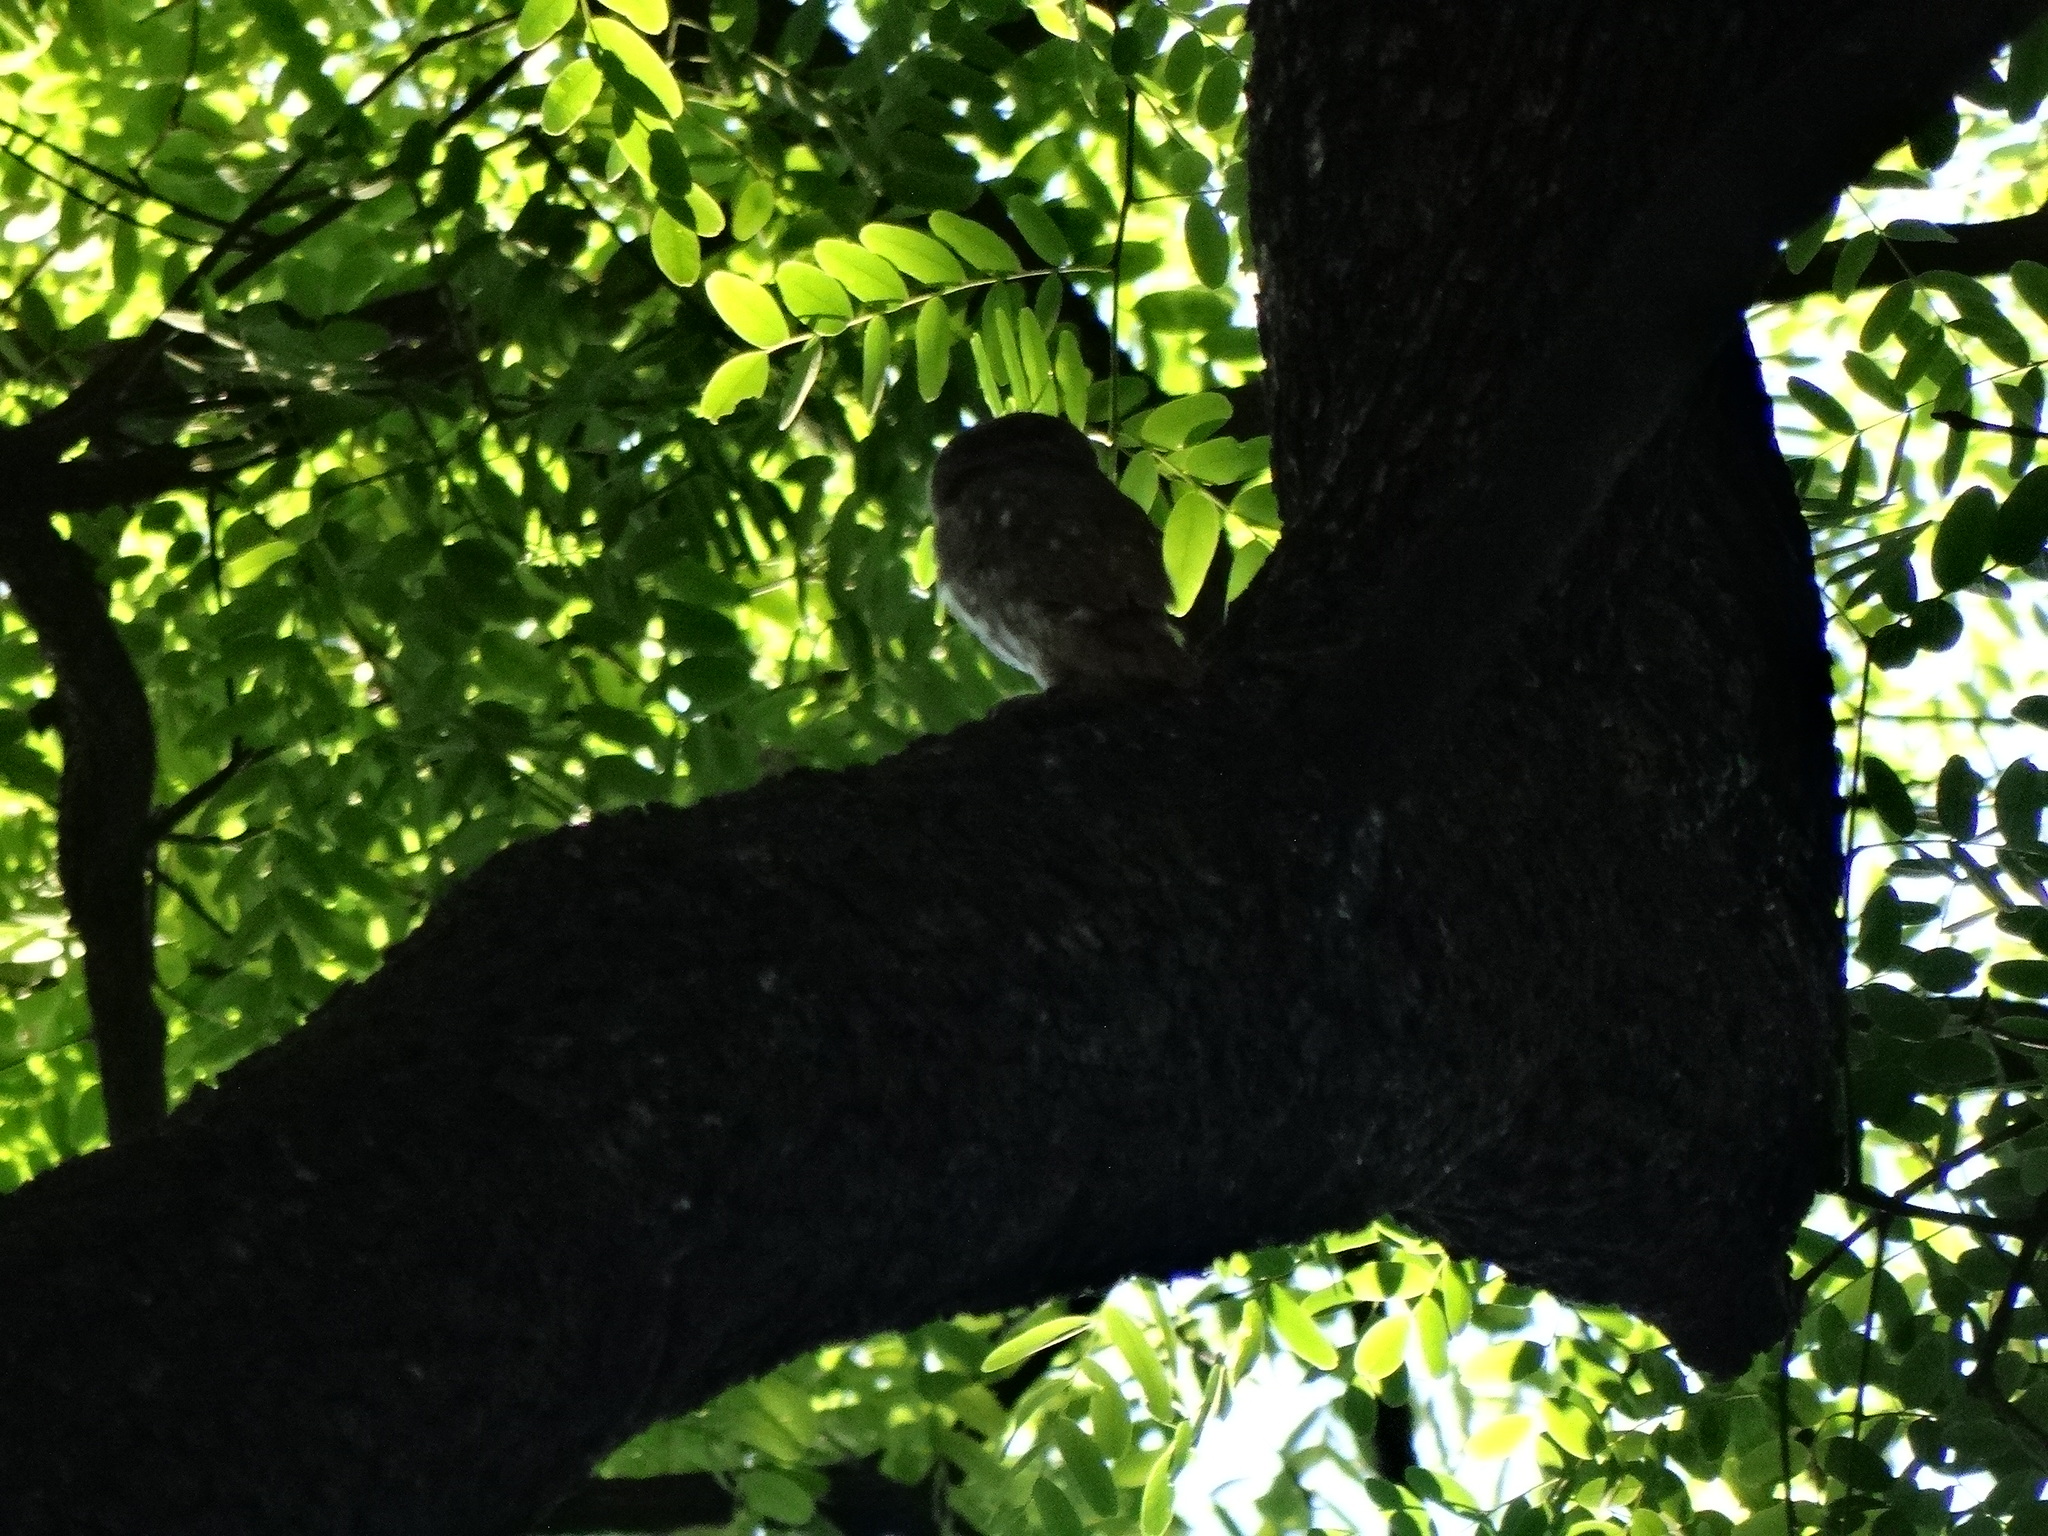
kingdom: Animalia
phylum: Chordata
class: Aves
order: Strigiformes
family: Strigidae
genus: Glaucidium
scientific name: Glaucidium brasilianum
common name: Ferruginous pygmy-owl
